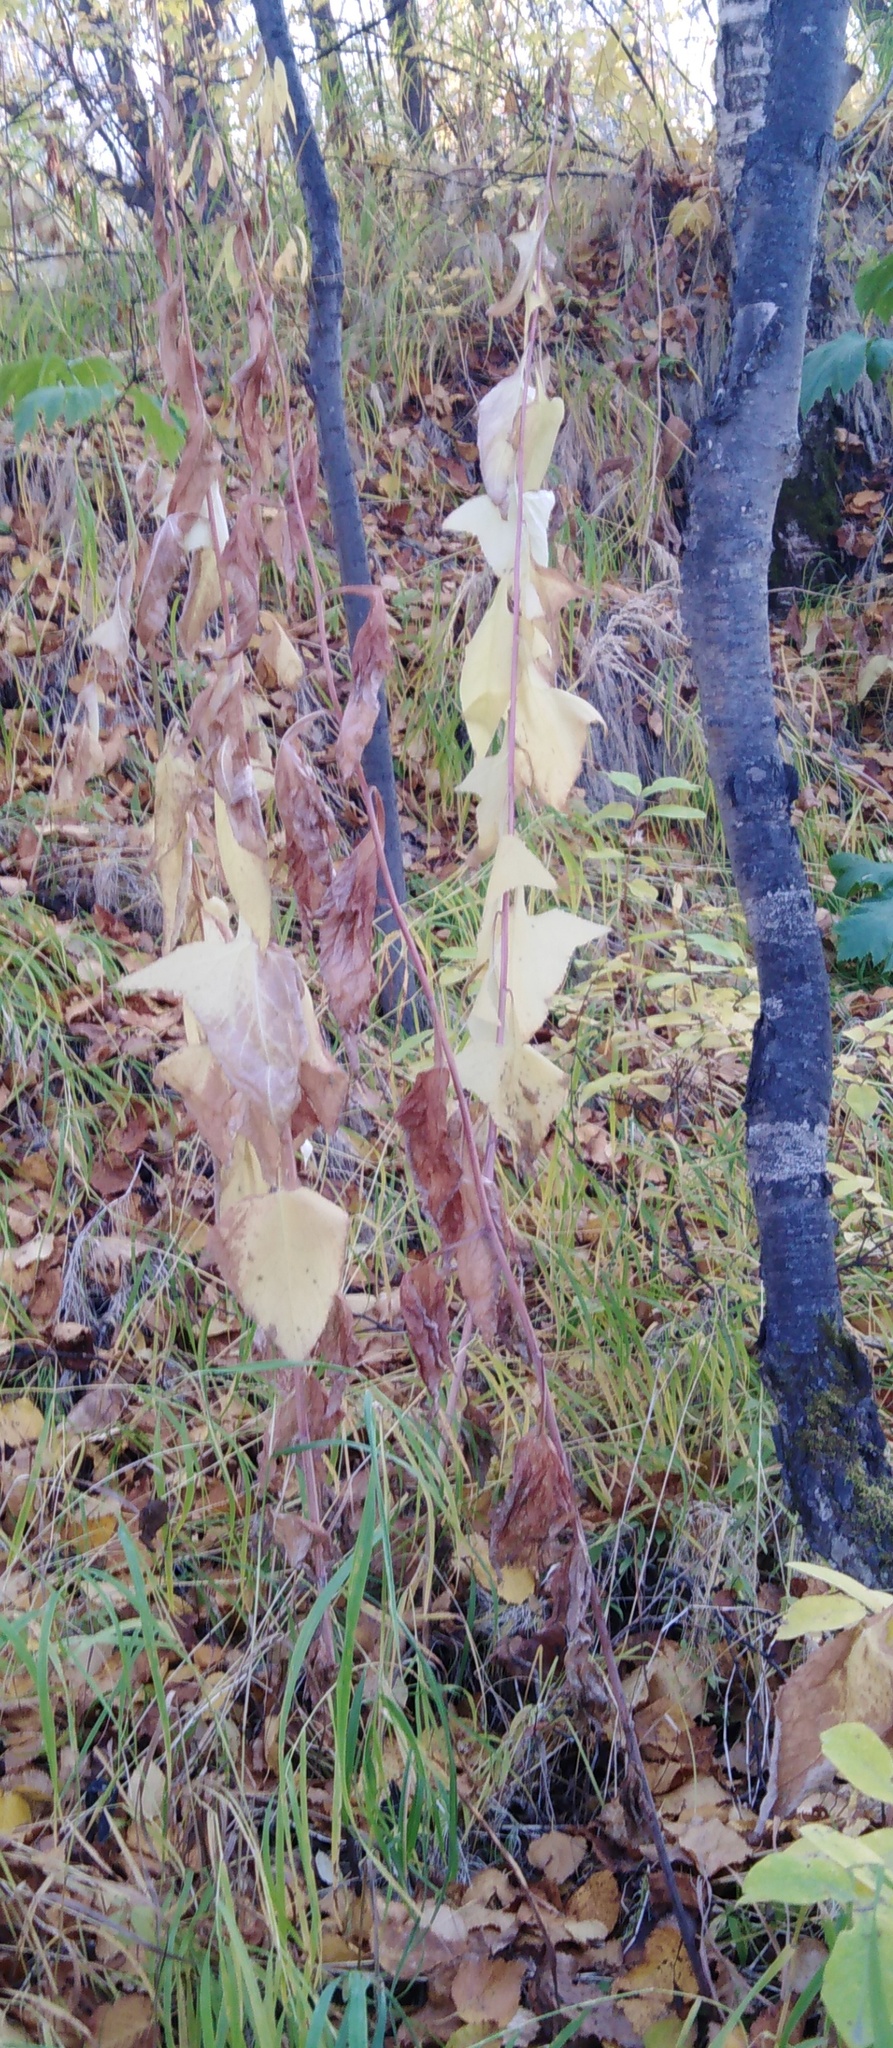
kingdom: Plantae
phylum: Tracheophyta
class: Magnoliopsida
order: Asterales
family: Asteraceae
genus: Parasenecio
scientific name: Parasenecio hastatus
